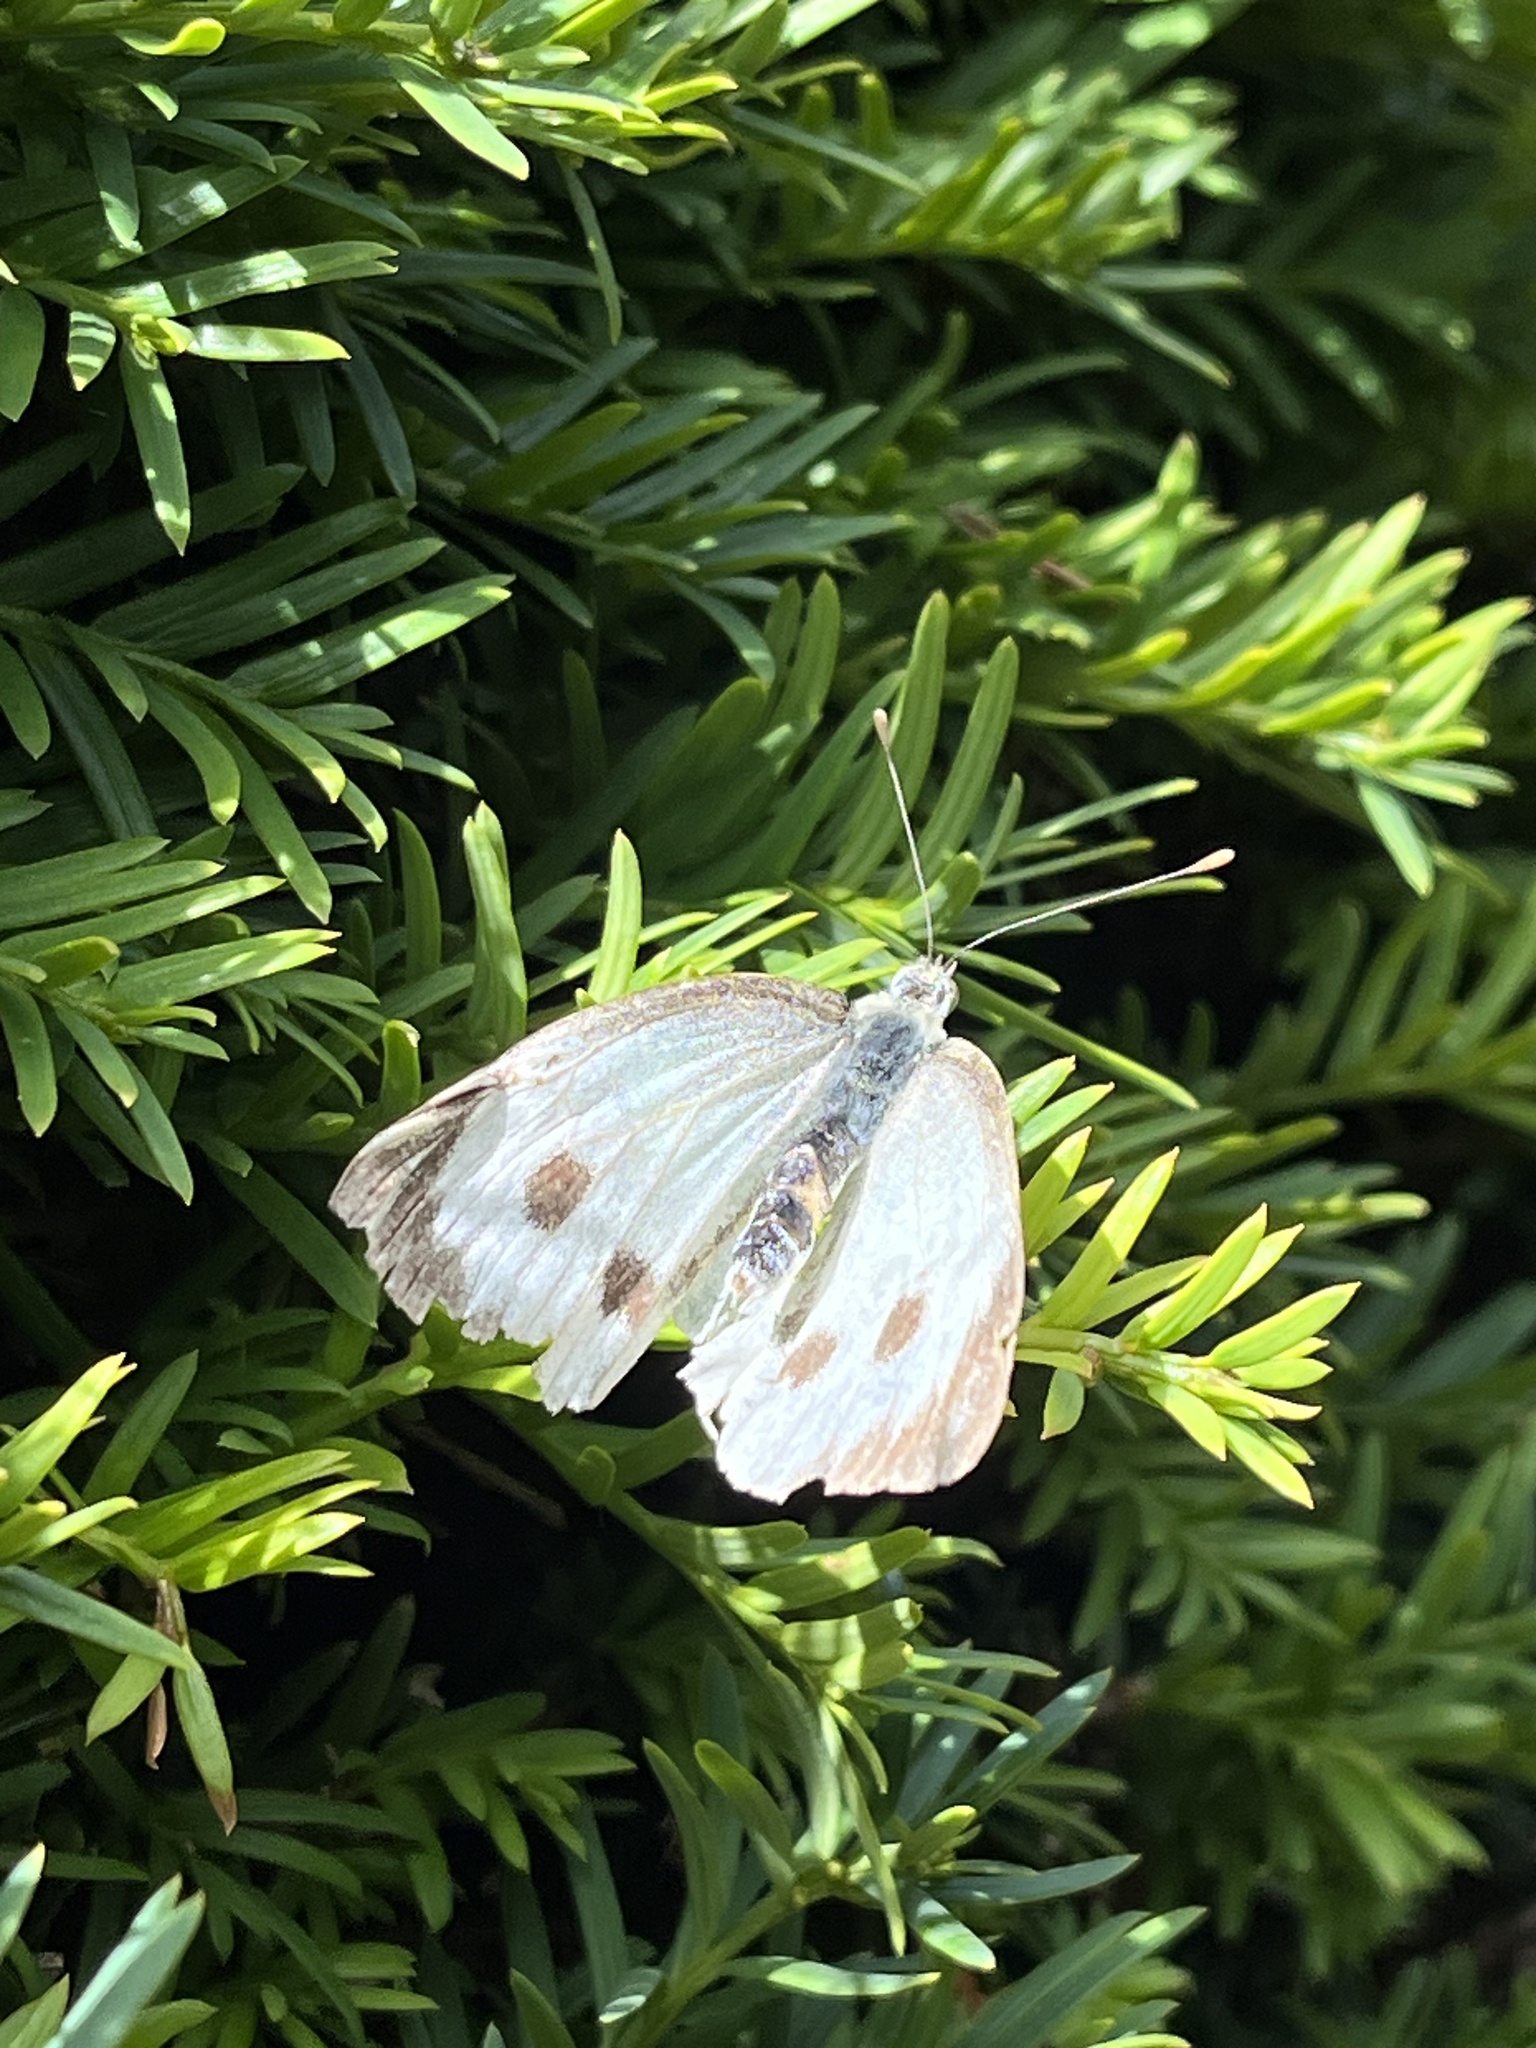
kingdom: Animalia
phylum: Arthropoda
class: Insecta
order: Lepidoptera
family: Pieridae
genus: Pieris
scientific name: Pieris brassicae
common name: Large white
